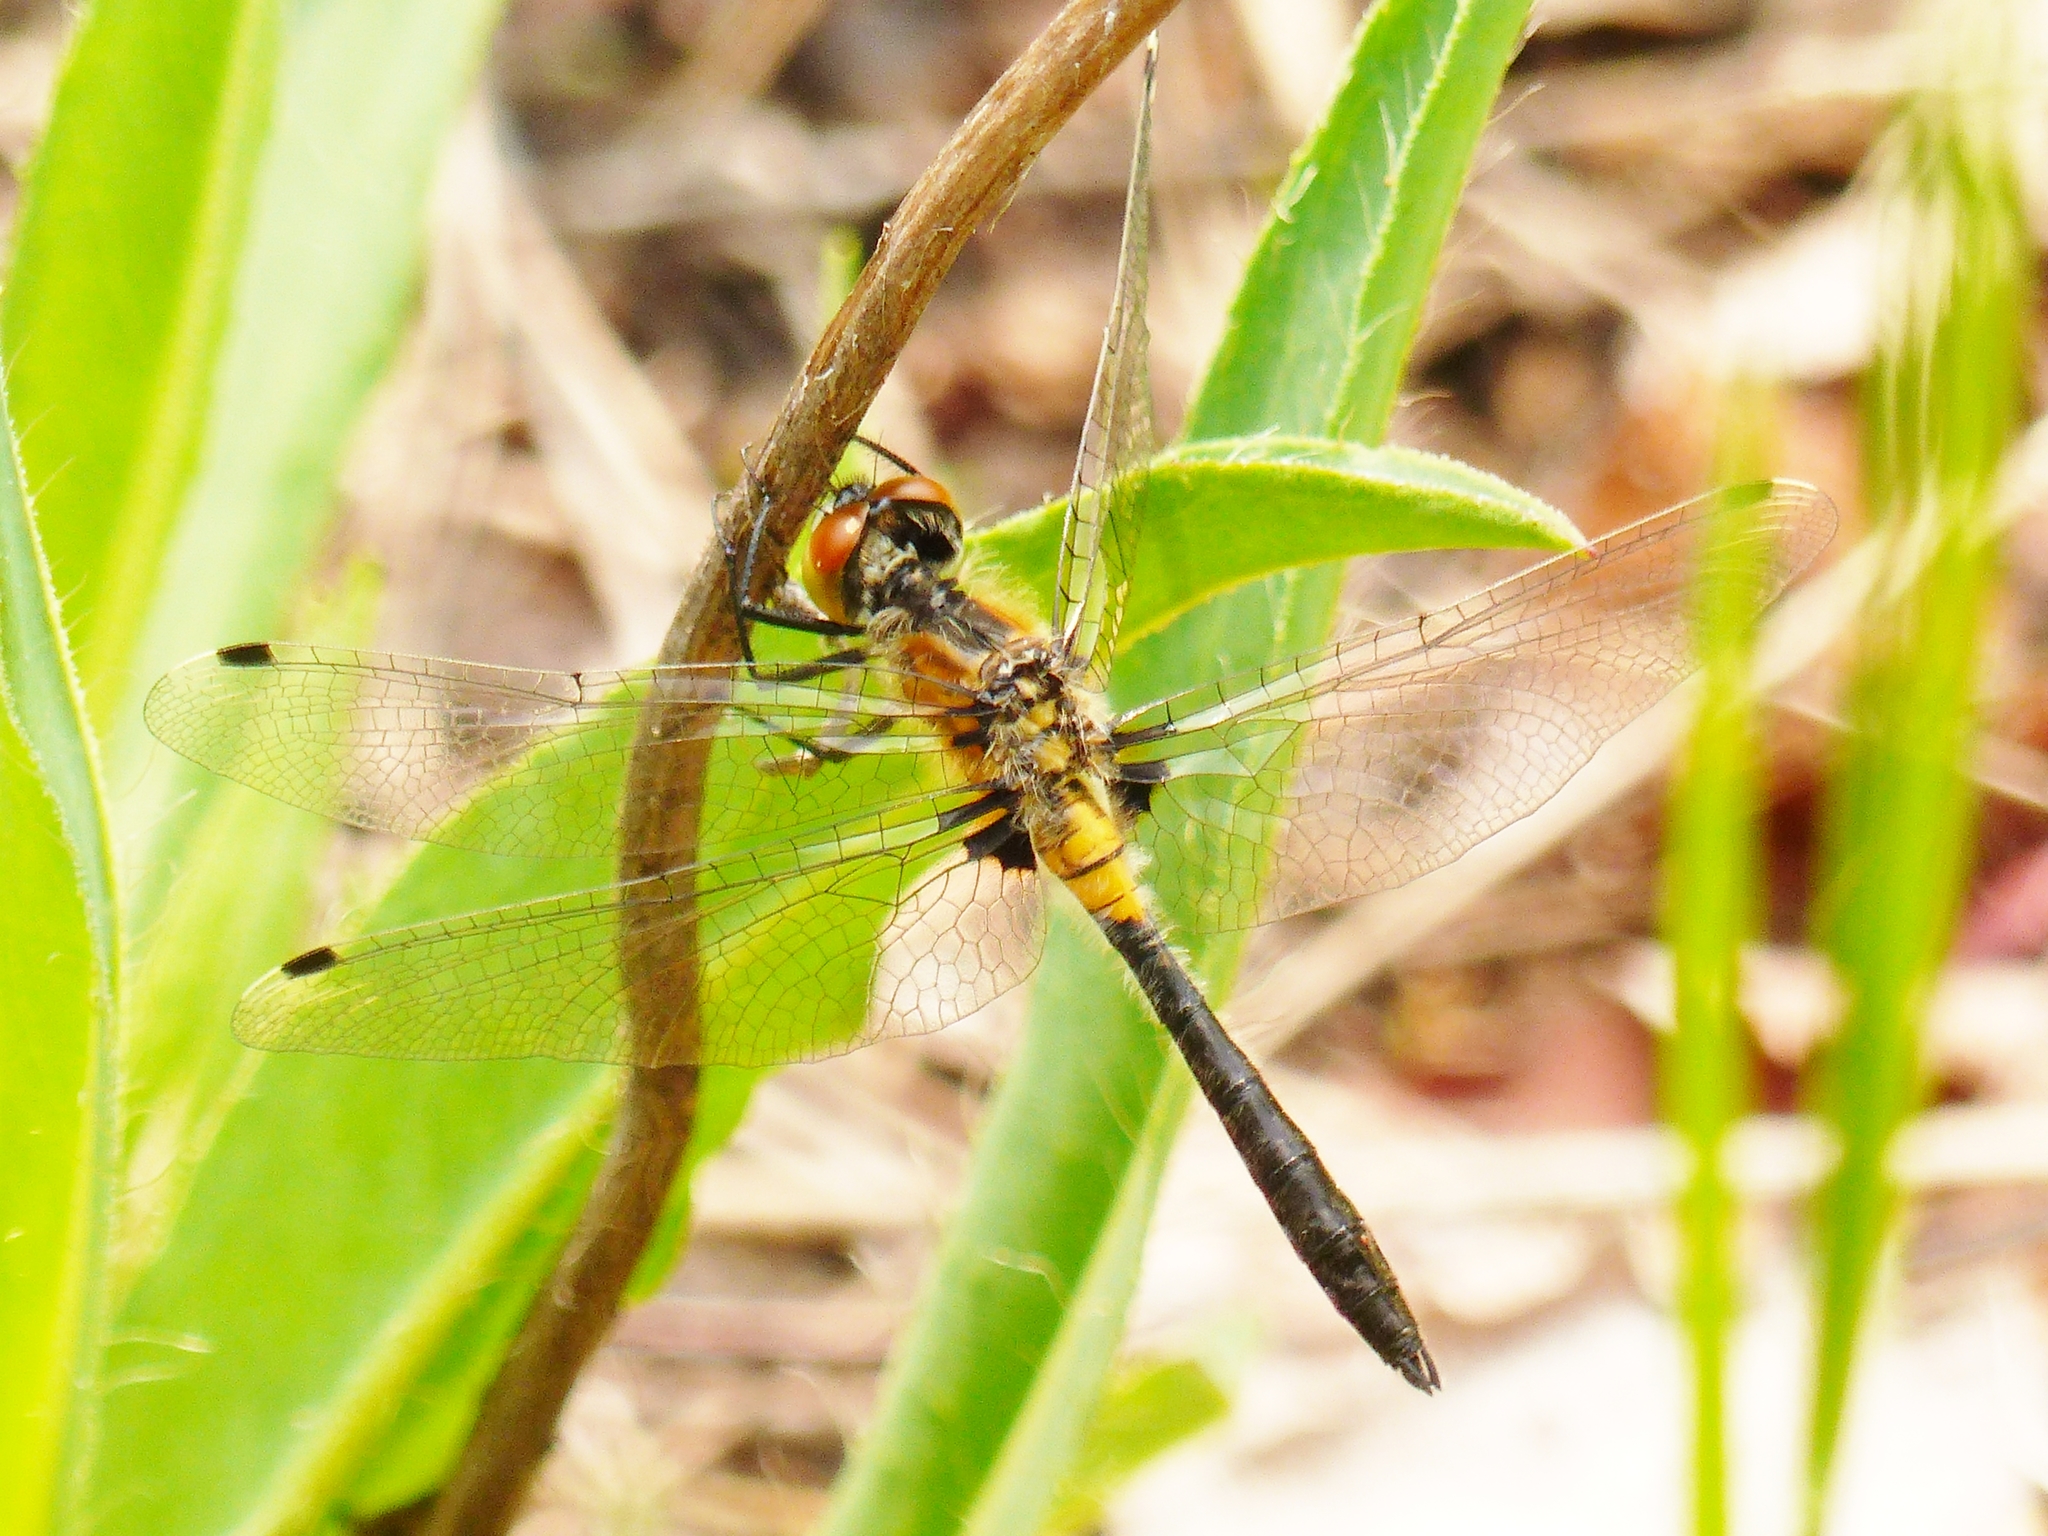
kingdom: Animalia
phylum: Arthropoda
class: Insecta
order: Odonata
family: Libellulidae
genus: Leucorrhinia
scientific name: Leucorrhinia frigida
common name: Frosted whiteface
